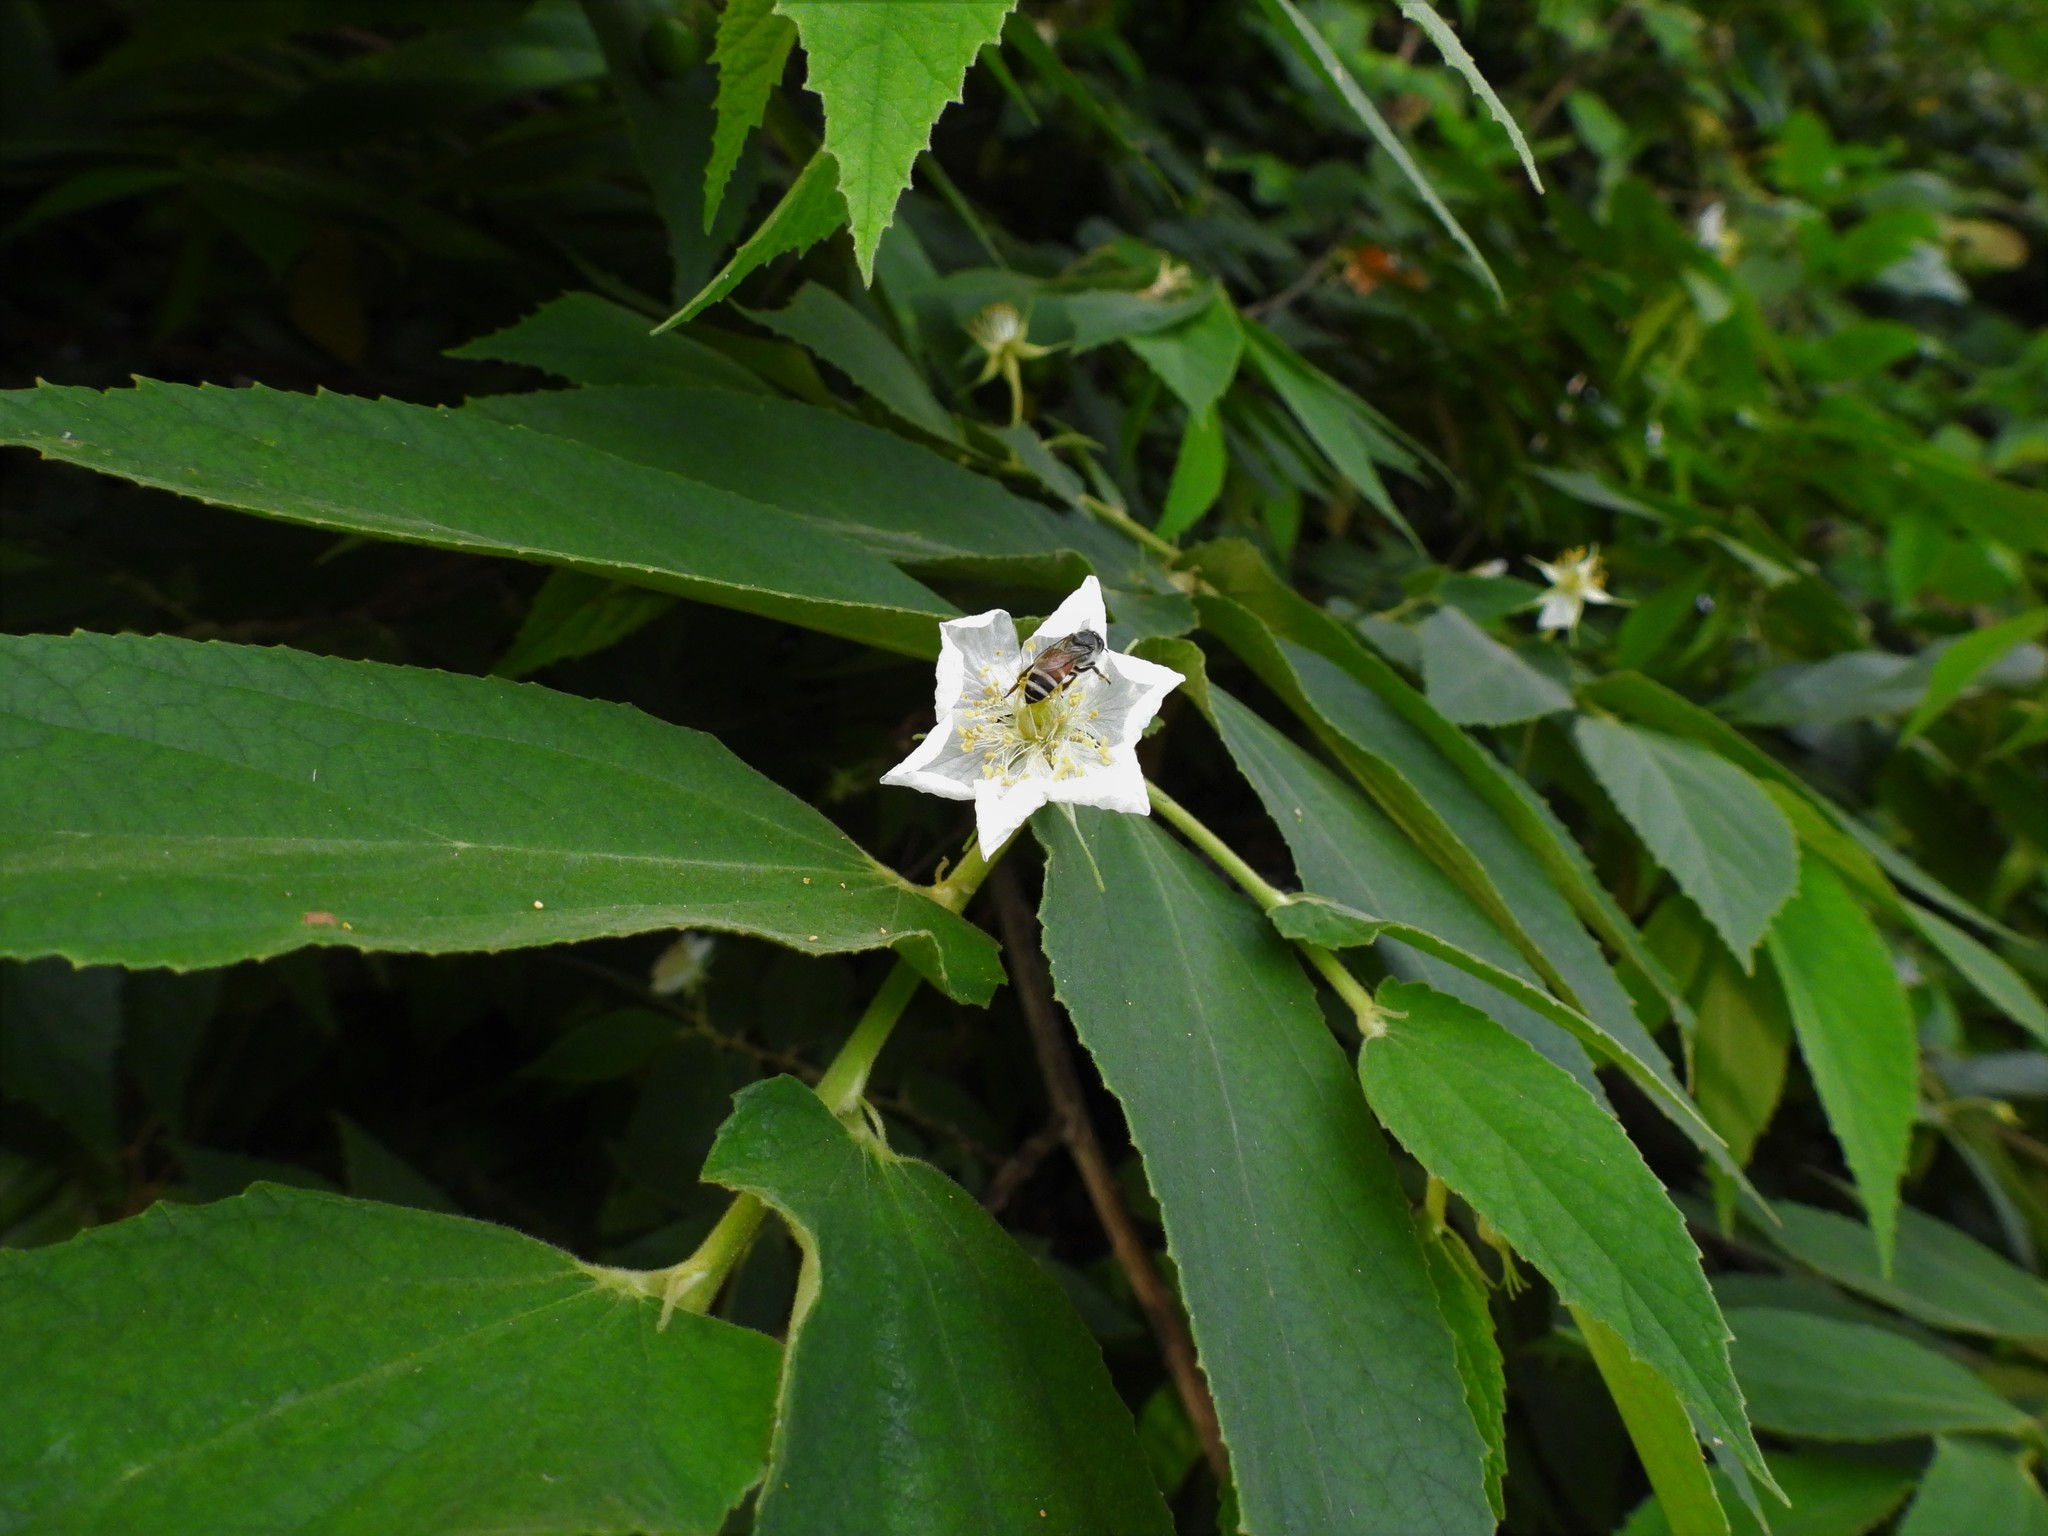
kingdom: Animalia
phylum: Arthropoda
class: Insecta
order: Hymenoptera
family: Apidae
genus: Apis
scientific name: Apis florea
